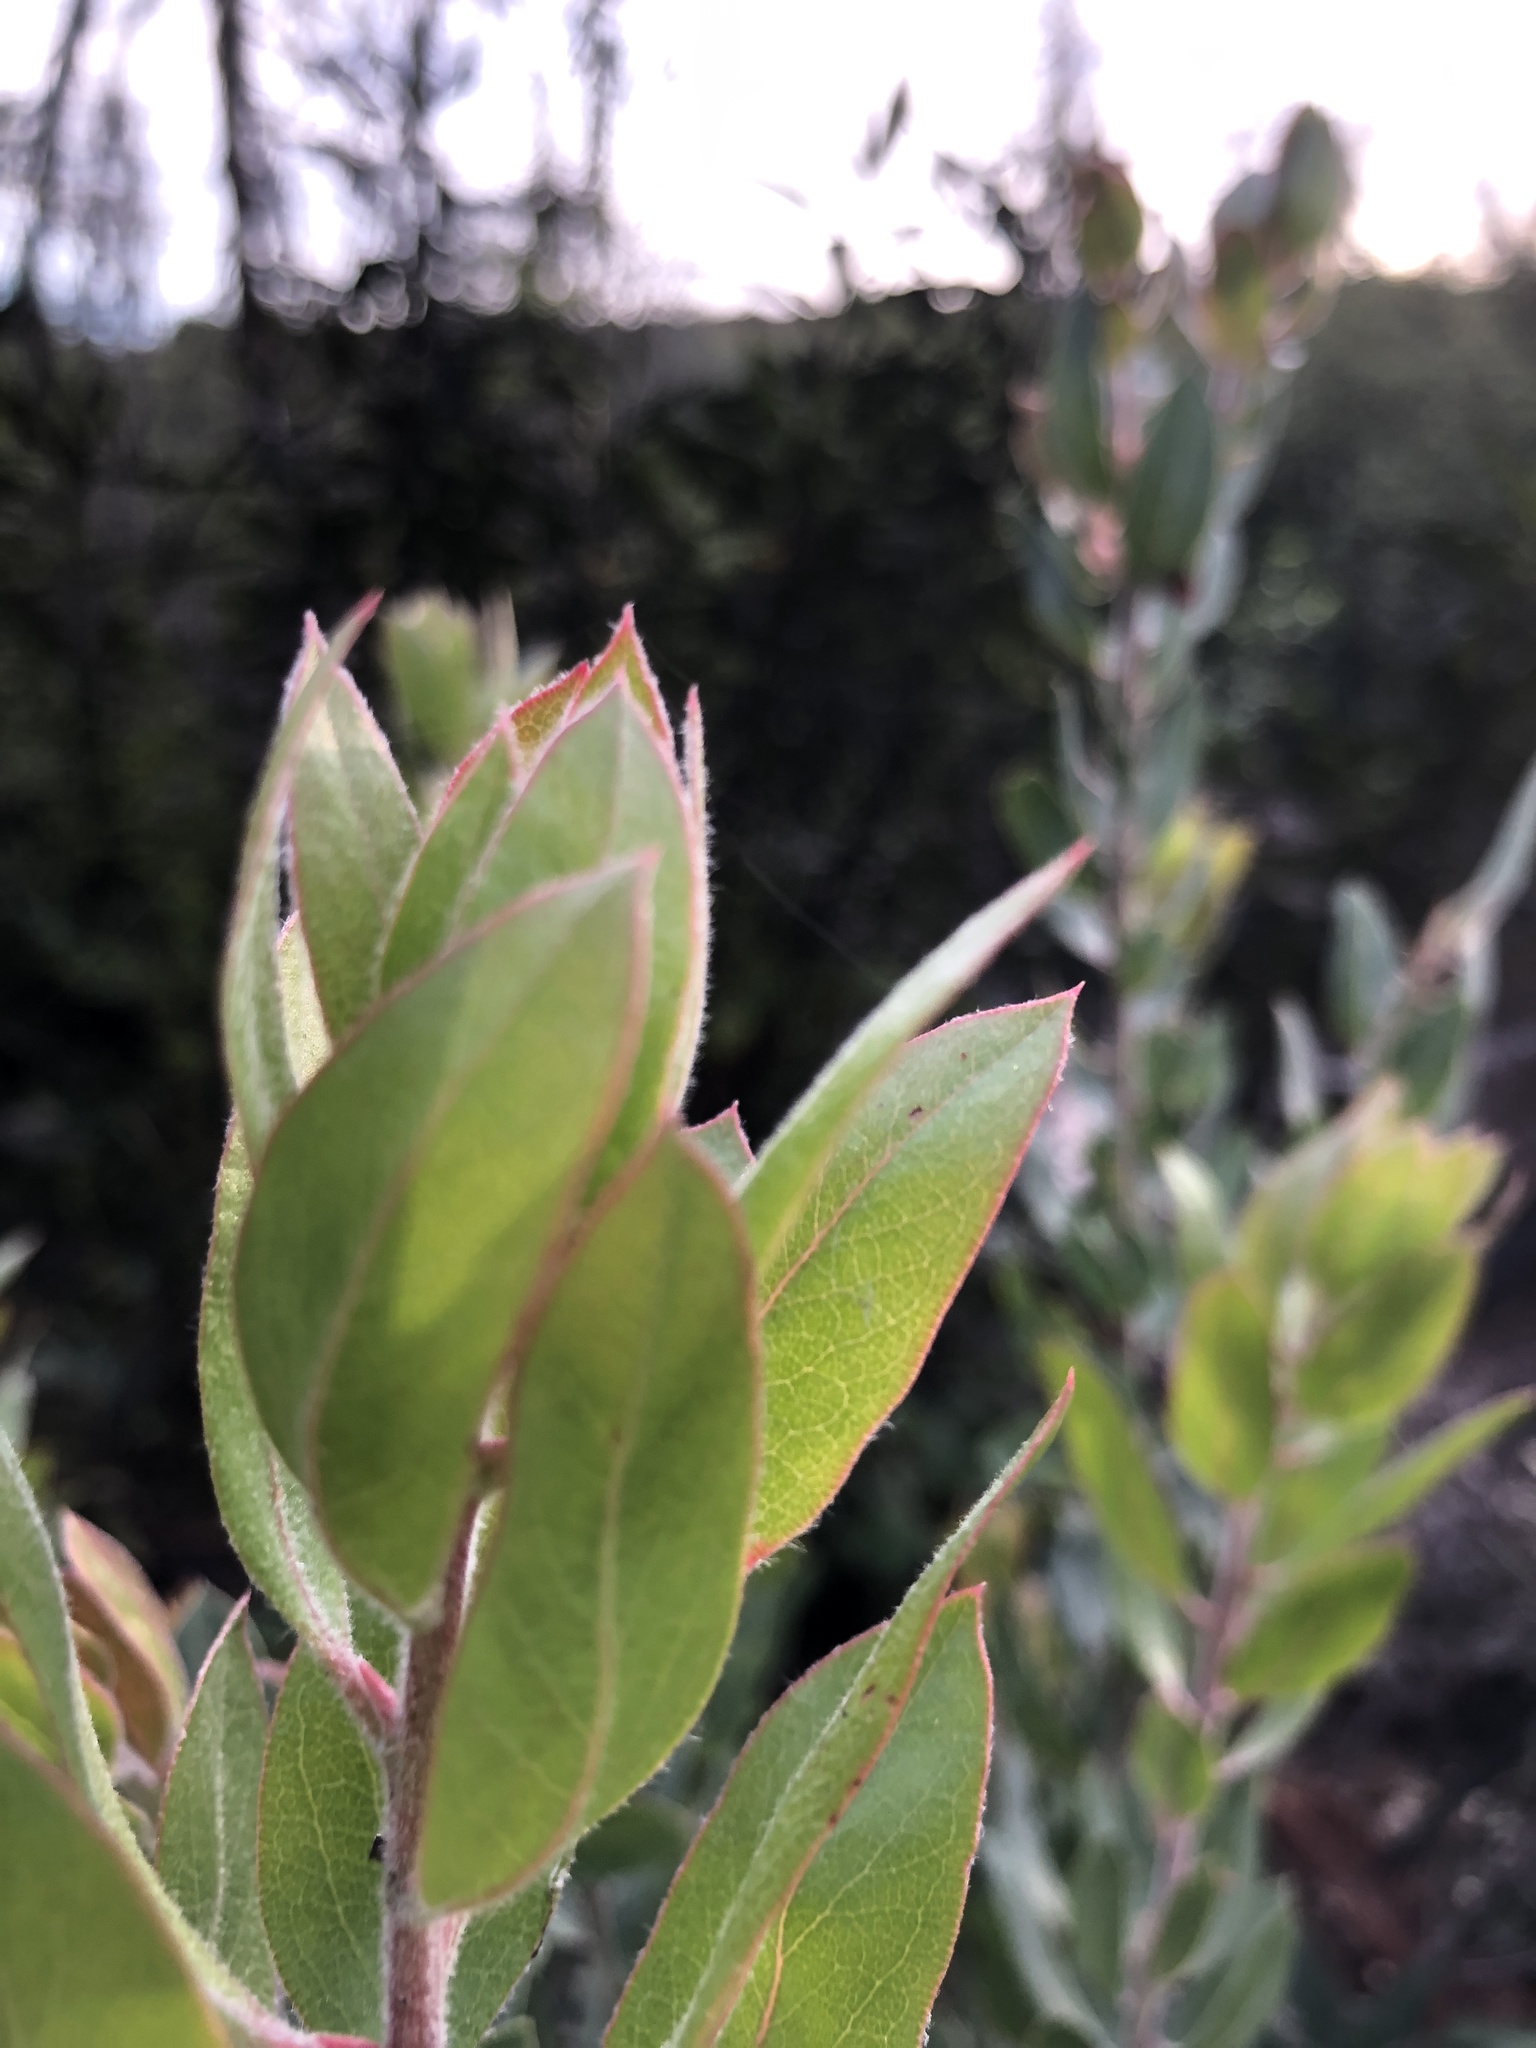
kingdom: Plantae
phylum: Tracheophyta
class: Magnoliopsida
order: Ericales
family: Ericaceae
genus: Arctostaphylos
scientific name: Arctostaphylos silvicola
